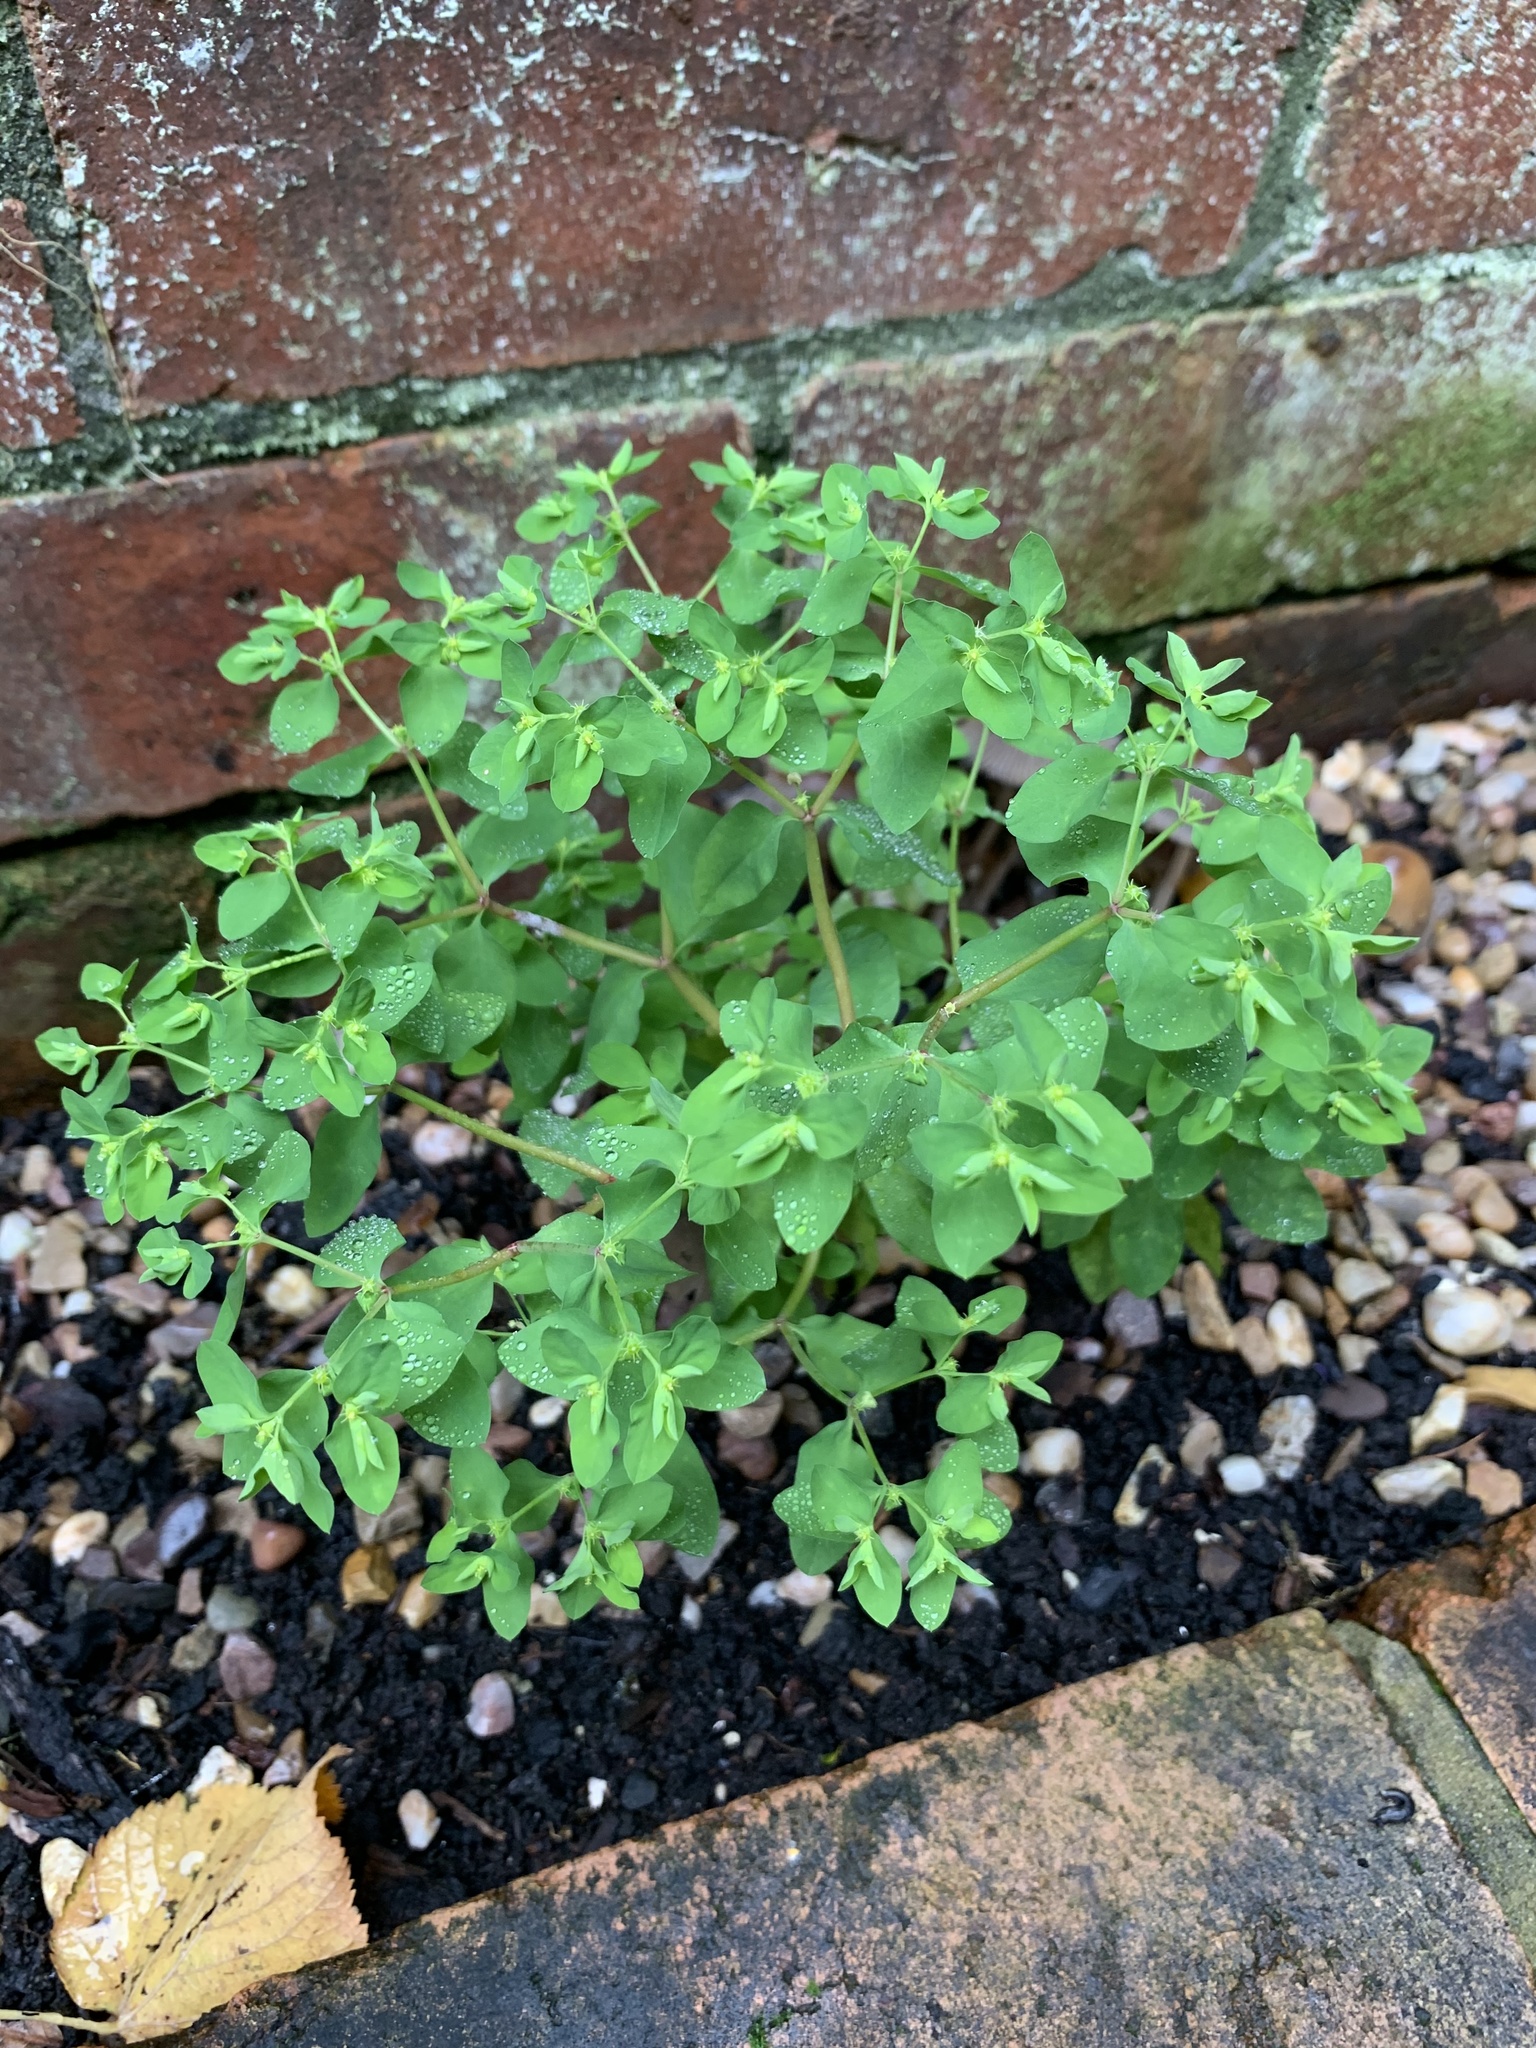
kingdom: Plantae
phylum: Tracheophyta
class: Magnoliopsida
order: Malpighiales
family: Euphorbiaceae
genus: Euphorbia
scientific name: Euphorbia peplus
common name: Petty spurge
